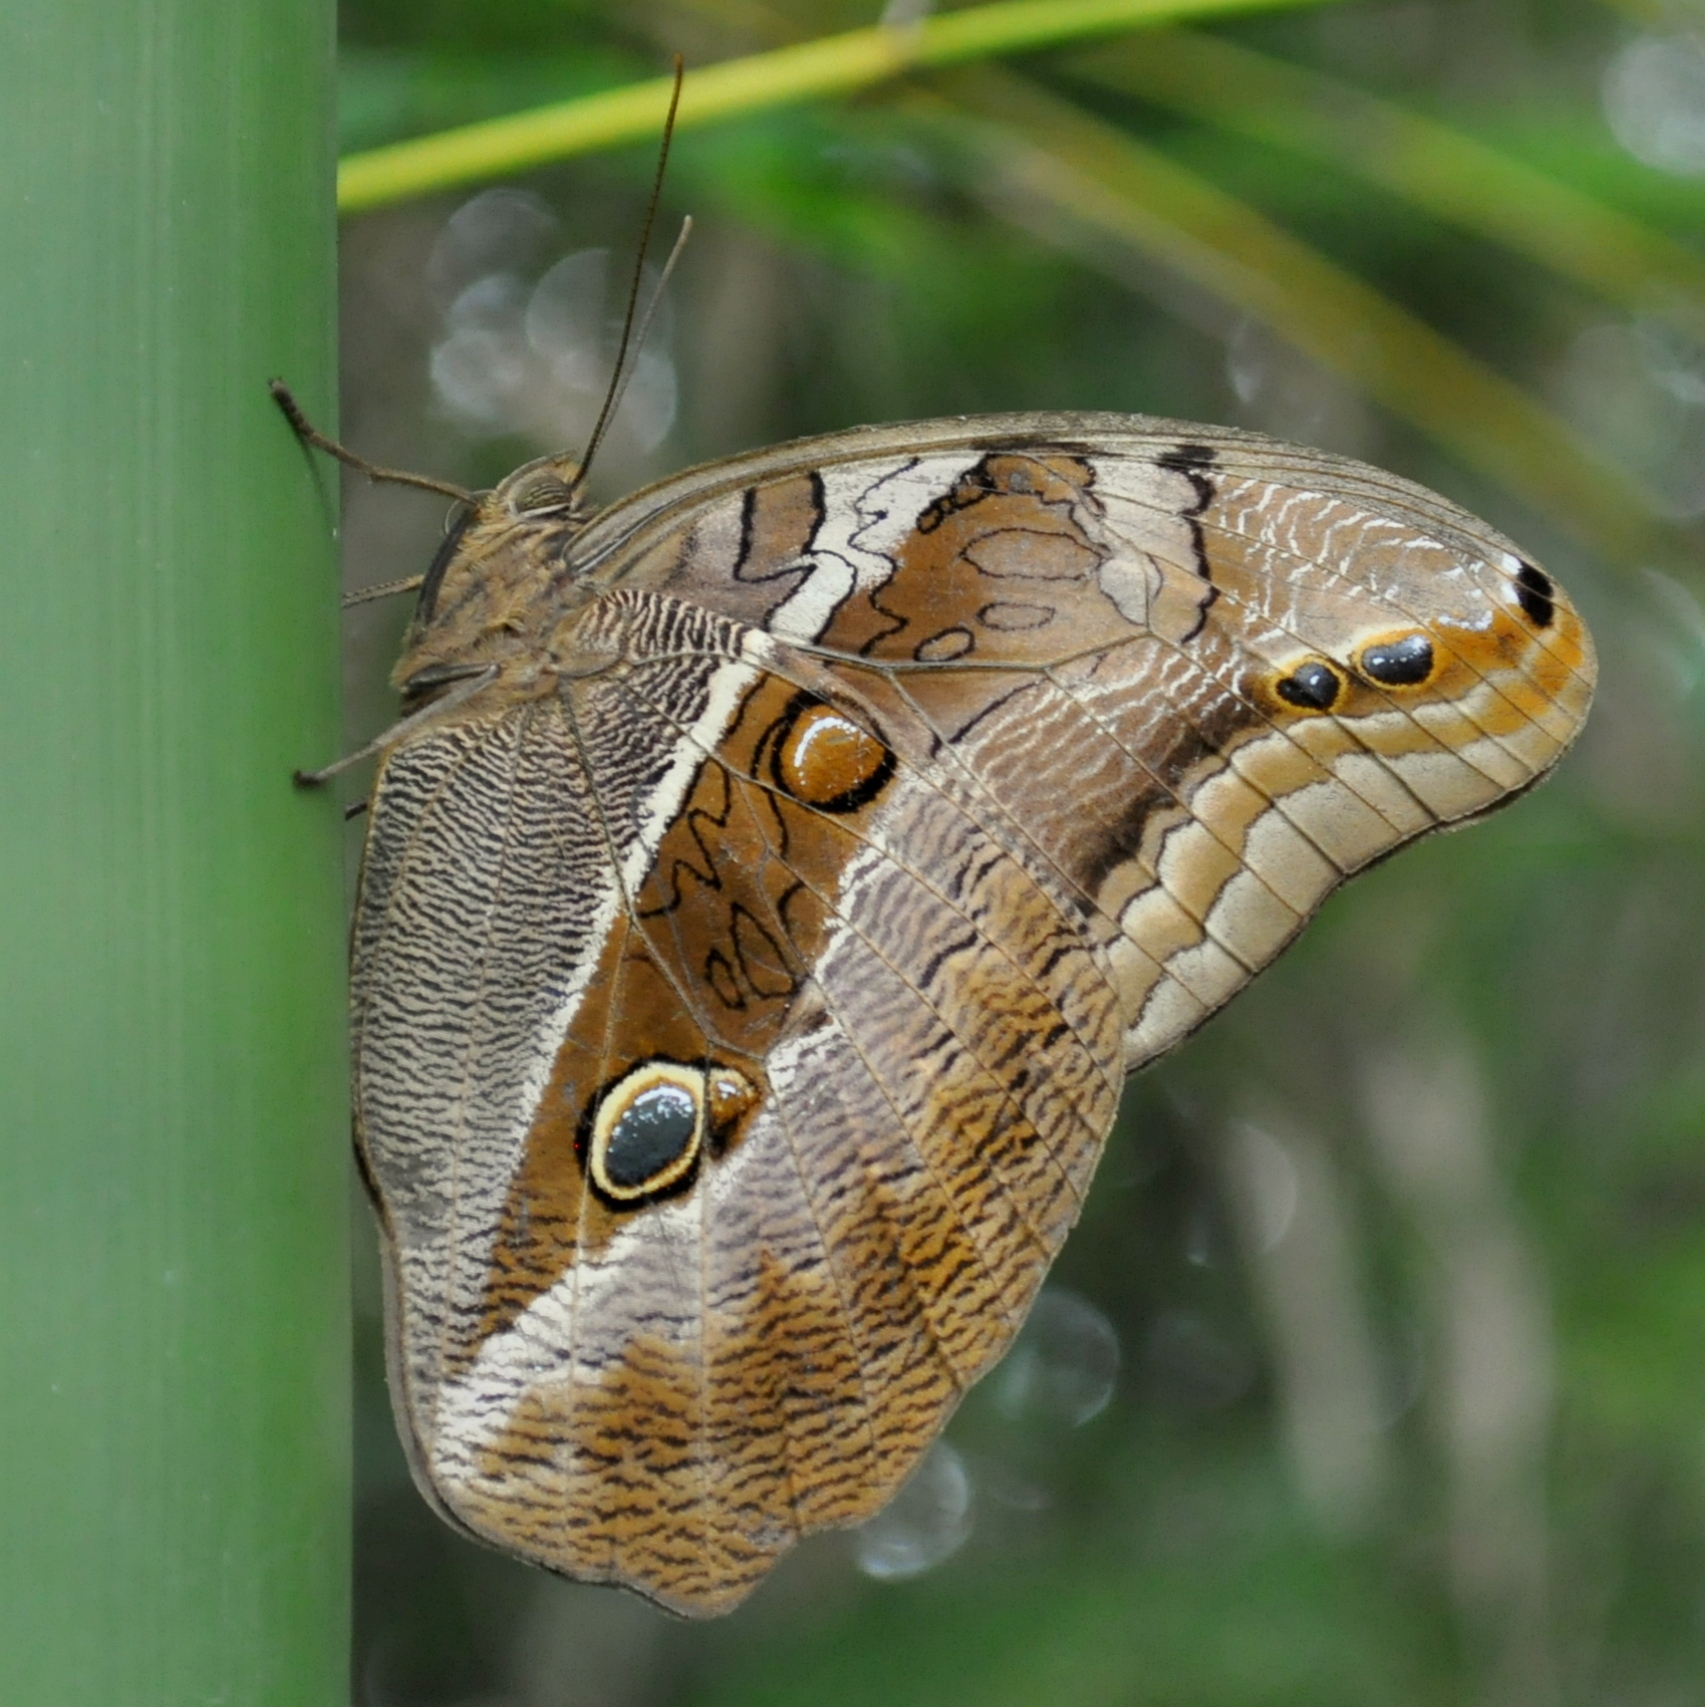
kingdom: Animalia
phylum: Arthropoda
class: Insecta
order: Lepidoptera
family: Nymphalidae
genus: Eryphanis
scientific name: Eryphanis reevesii
